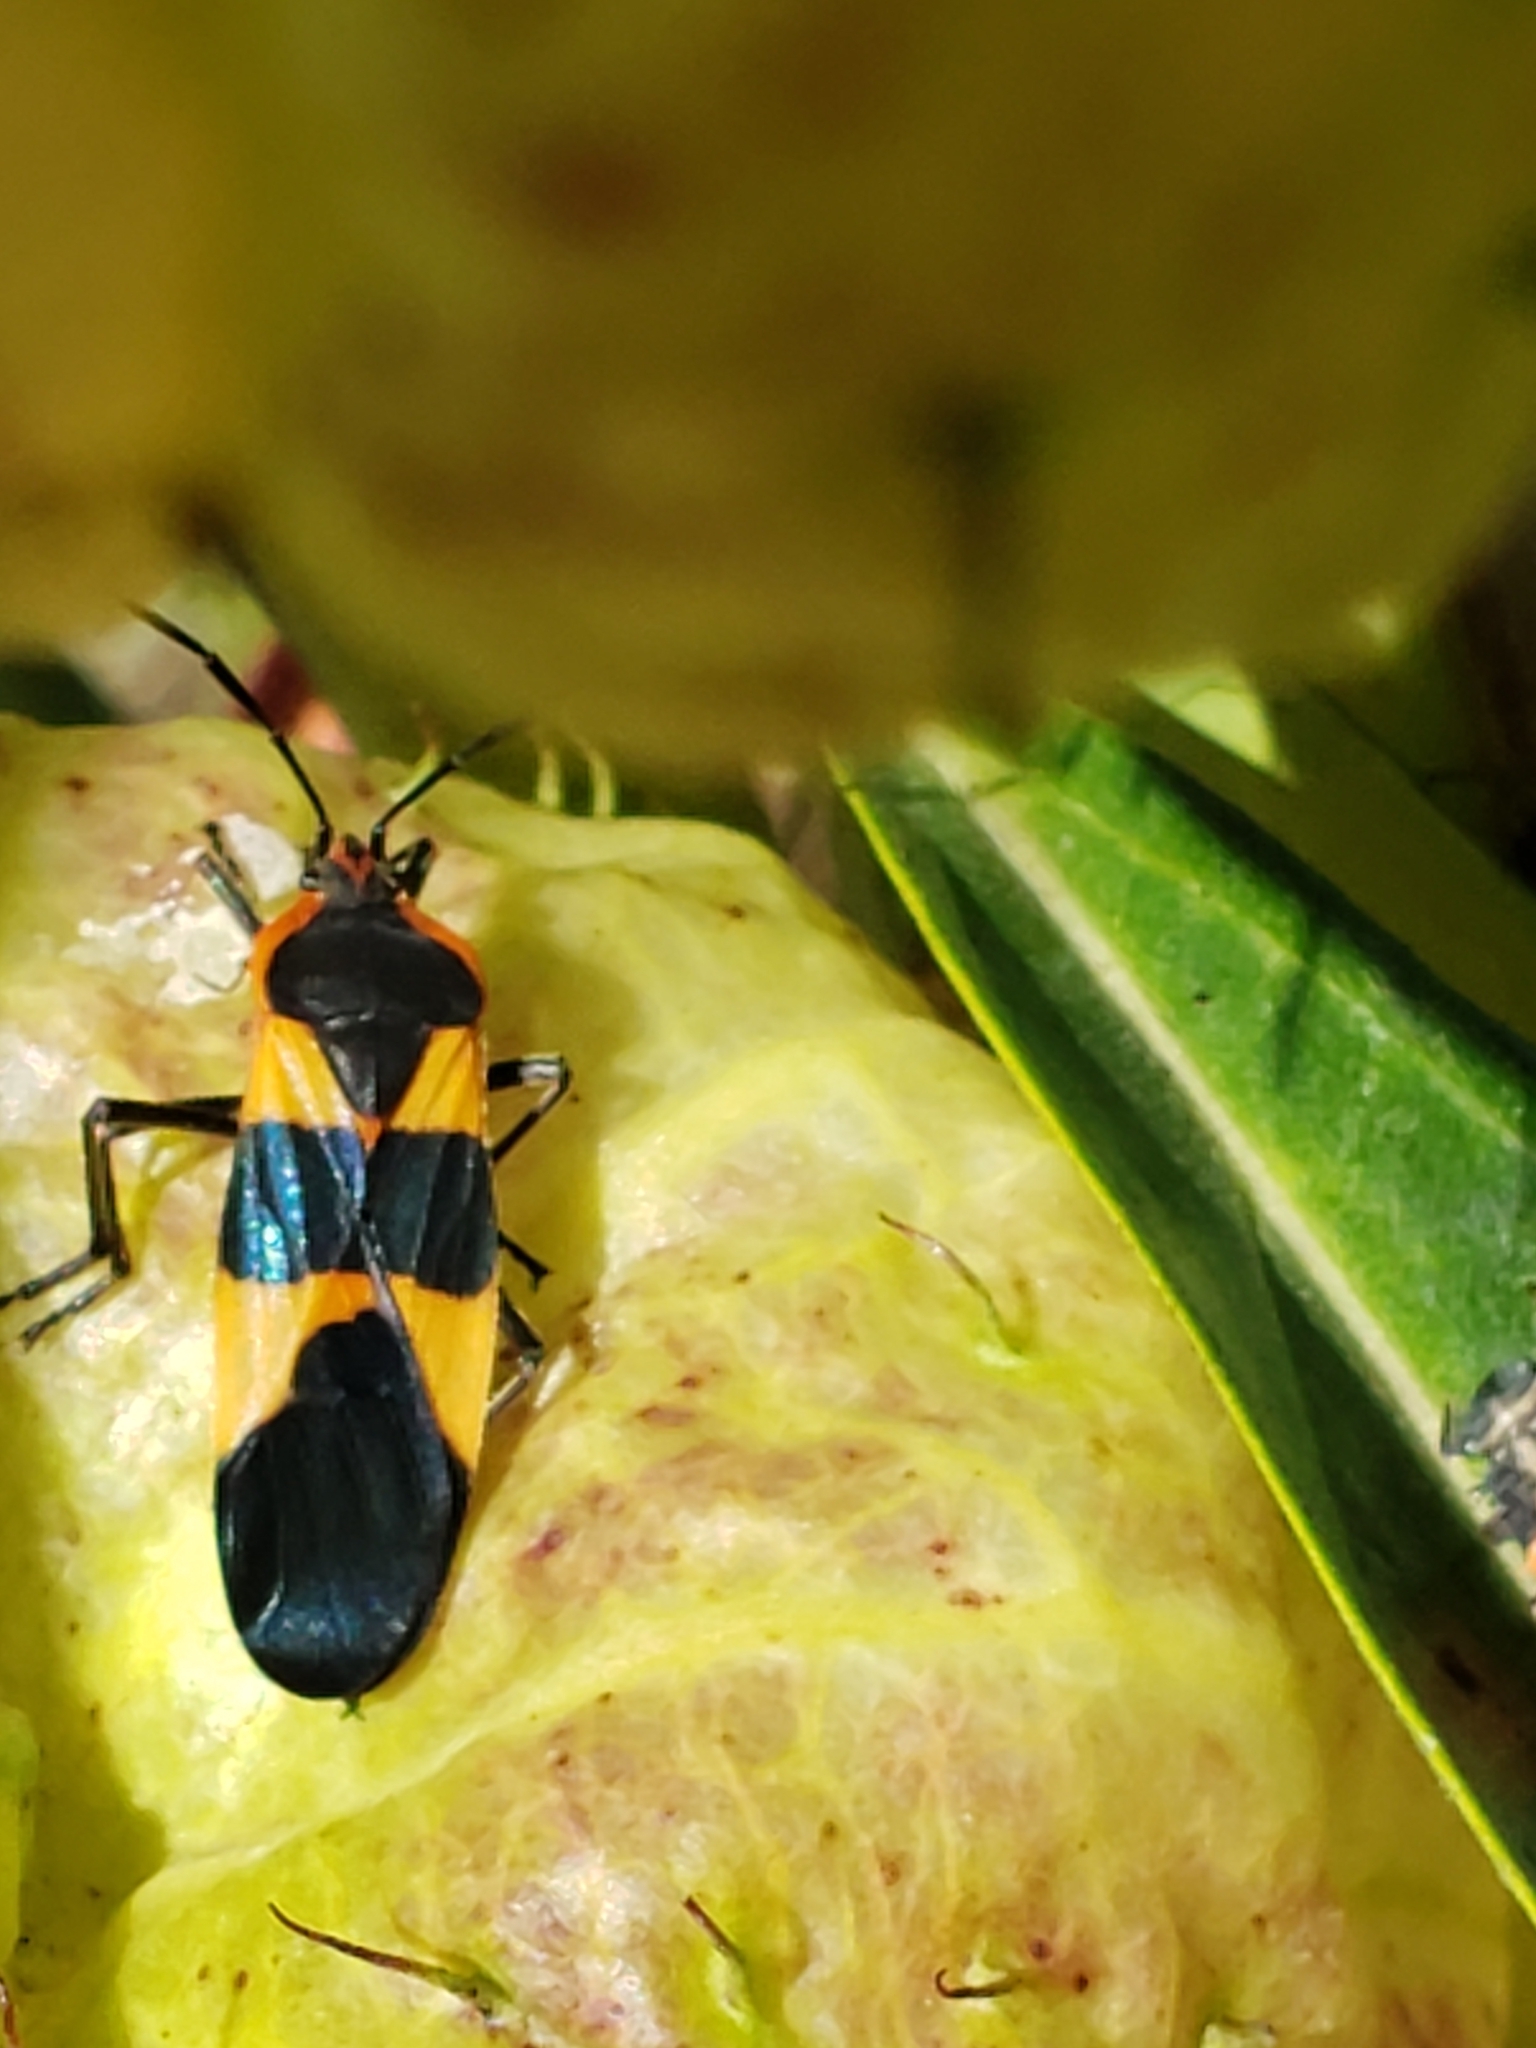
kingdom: Animalia
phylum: Arthropoda
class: Insecta
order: Hemiptera
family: Lygaeidae
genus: Oncopeltus
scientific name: Oncopeltus fasciatus
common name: Large milkweed bug
